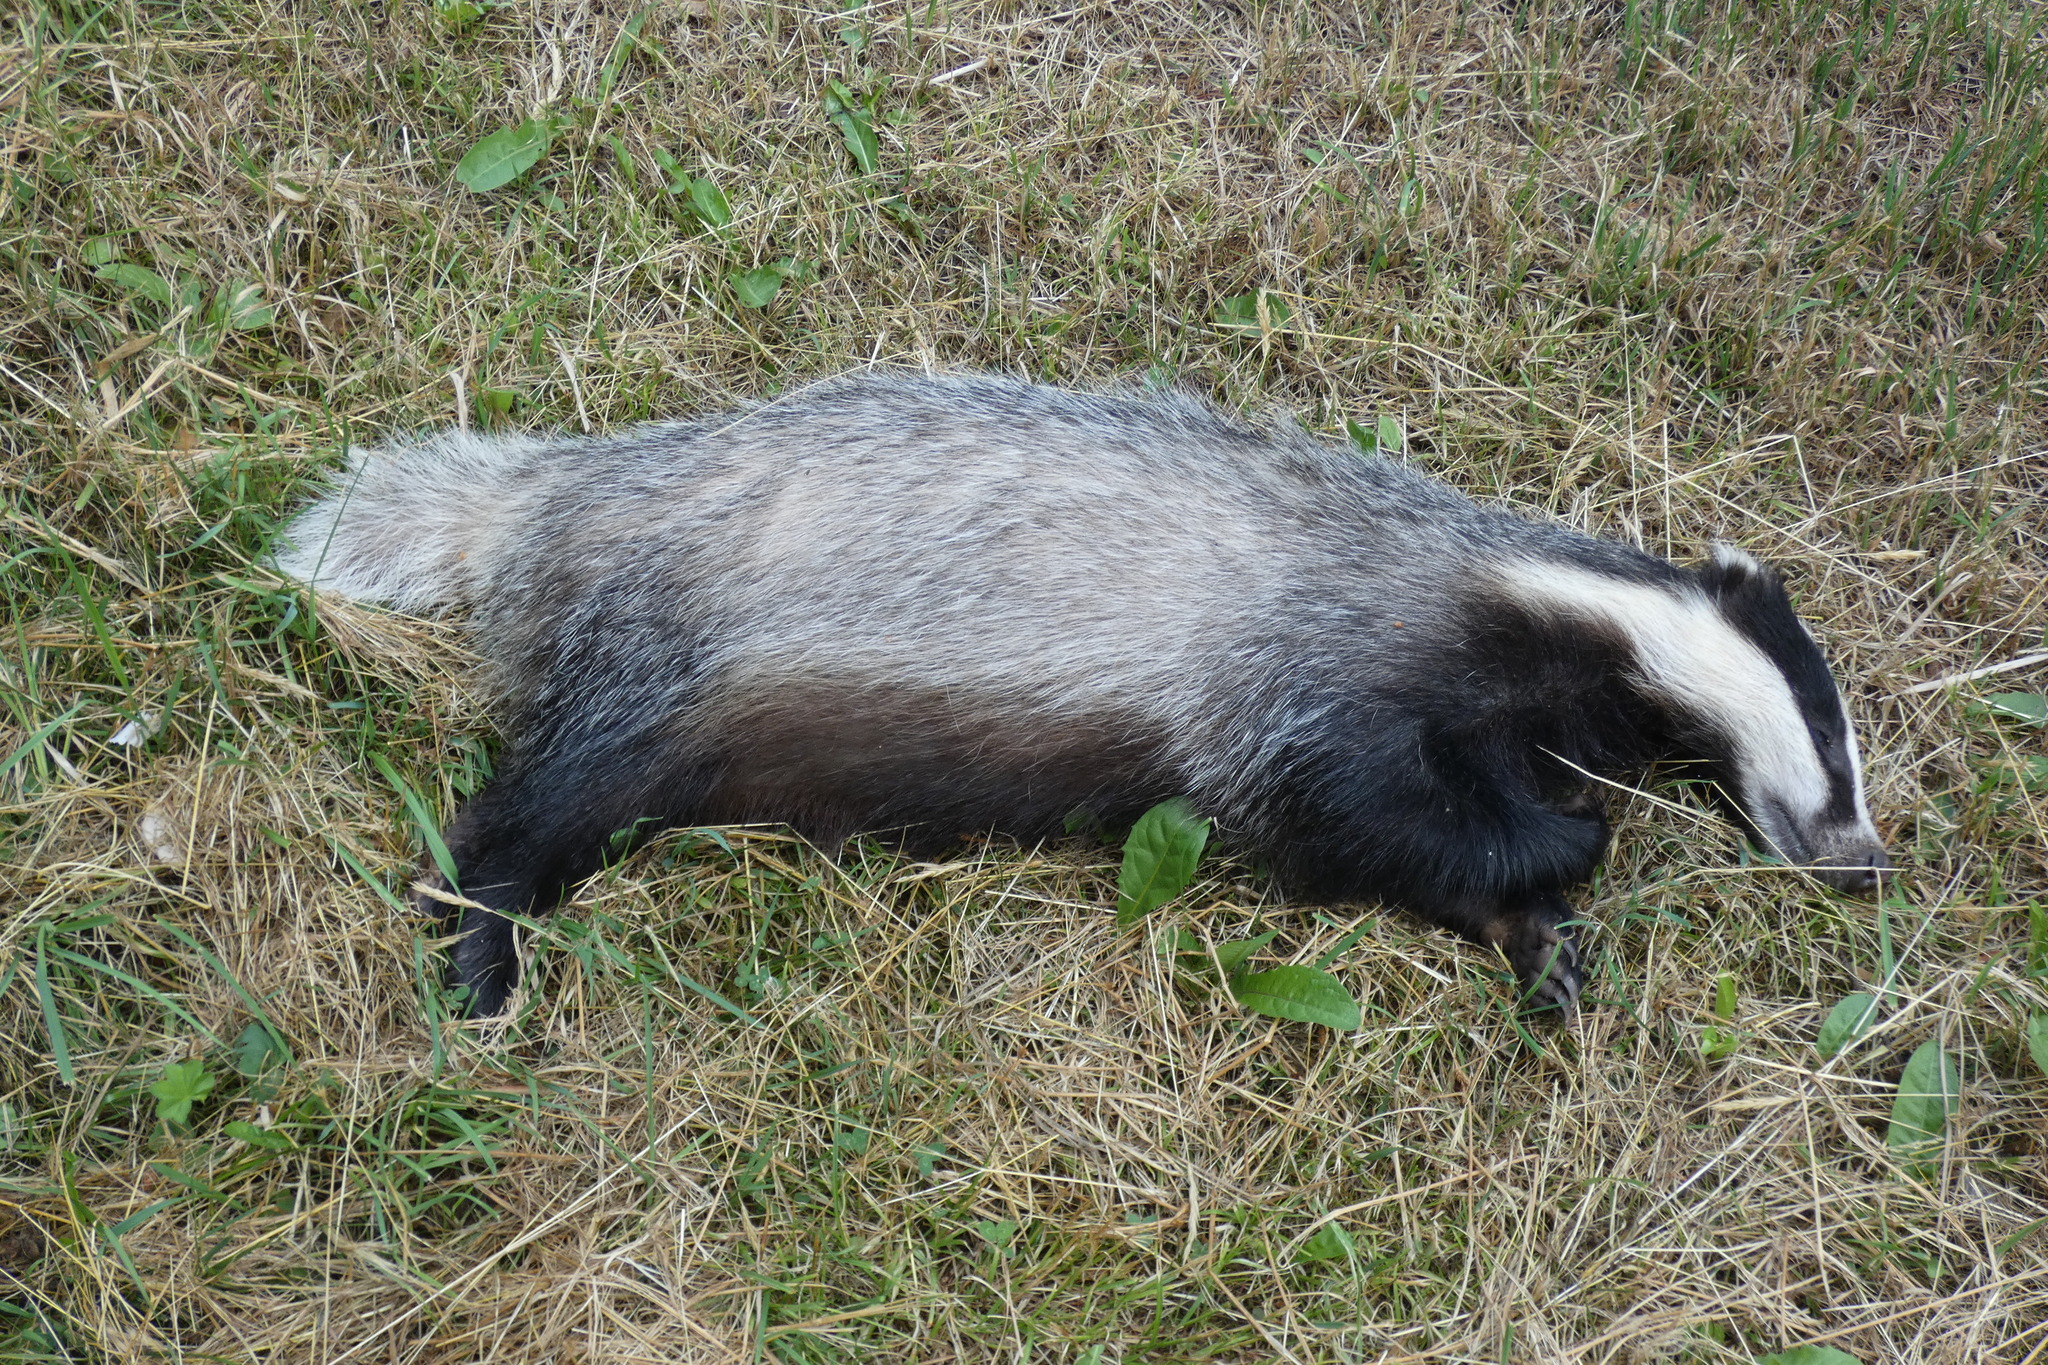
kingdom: Animalia
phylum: Chordata
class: Mammalia
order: Carnivora
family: Mustelidae
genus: Meles
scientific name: Meles meles
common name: Eurasian badger
